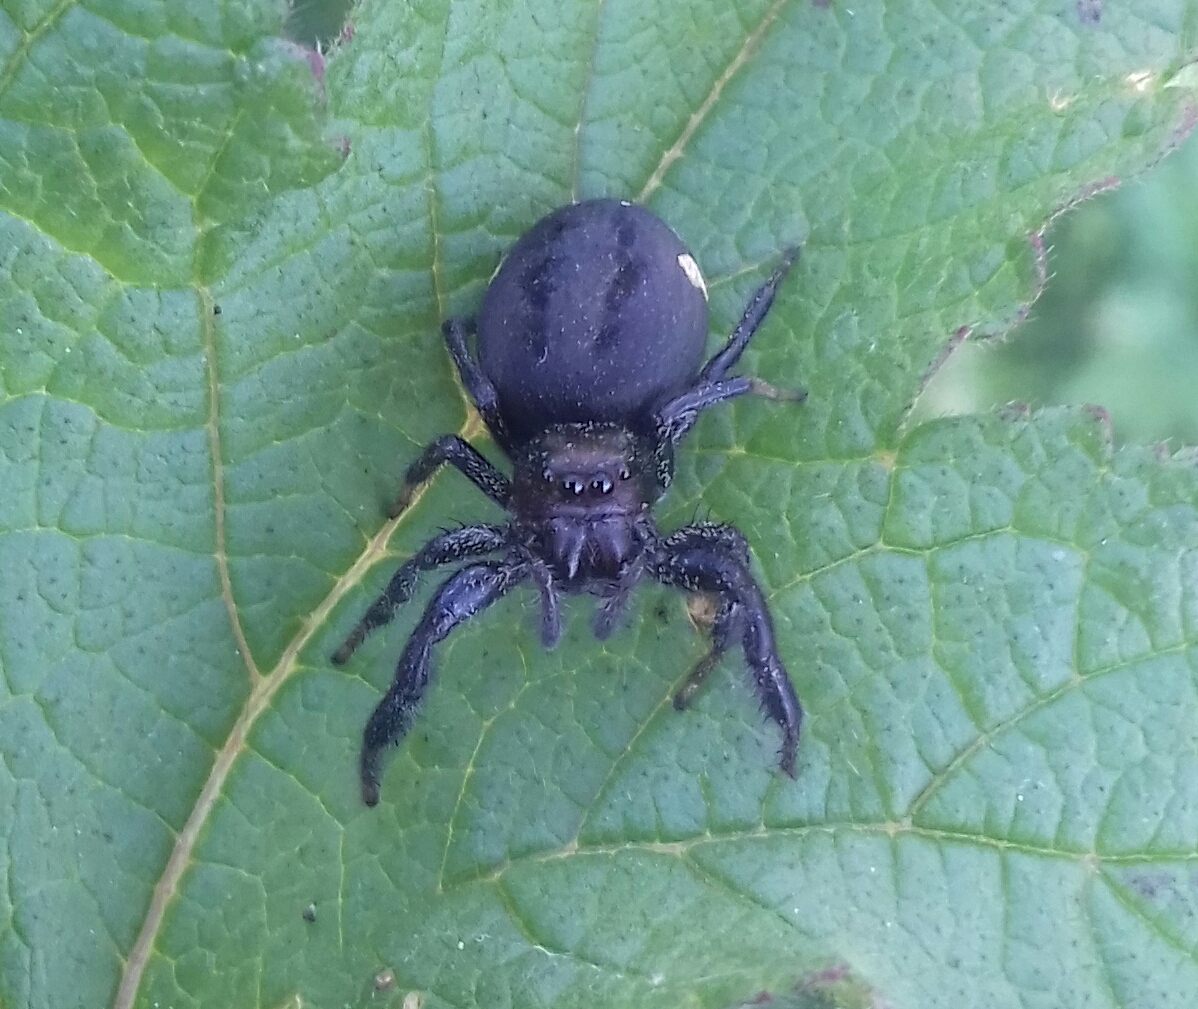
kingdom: Animalia
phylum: Arthropoda
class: Arachnida
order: Araneae
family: Salticidae
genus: Paraphidippus
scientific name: Paraphidippus aurantius
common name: Jumping spiders
